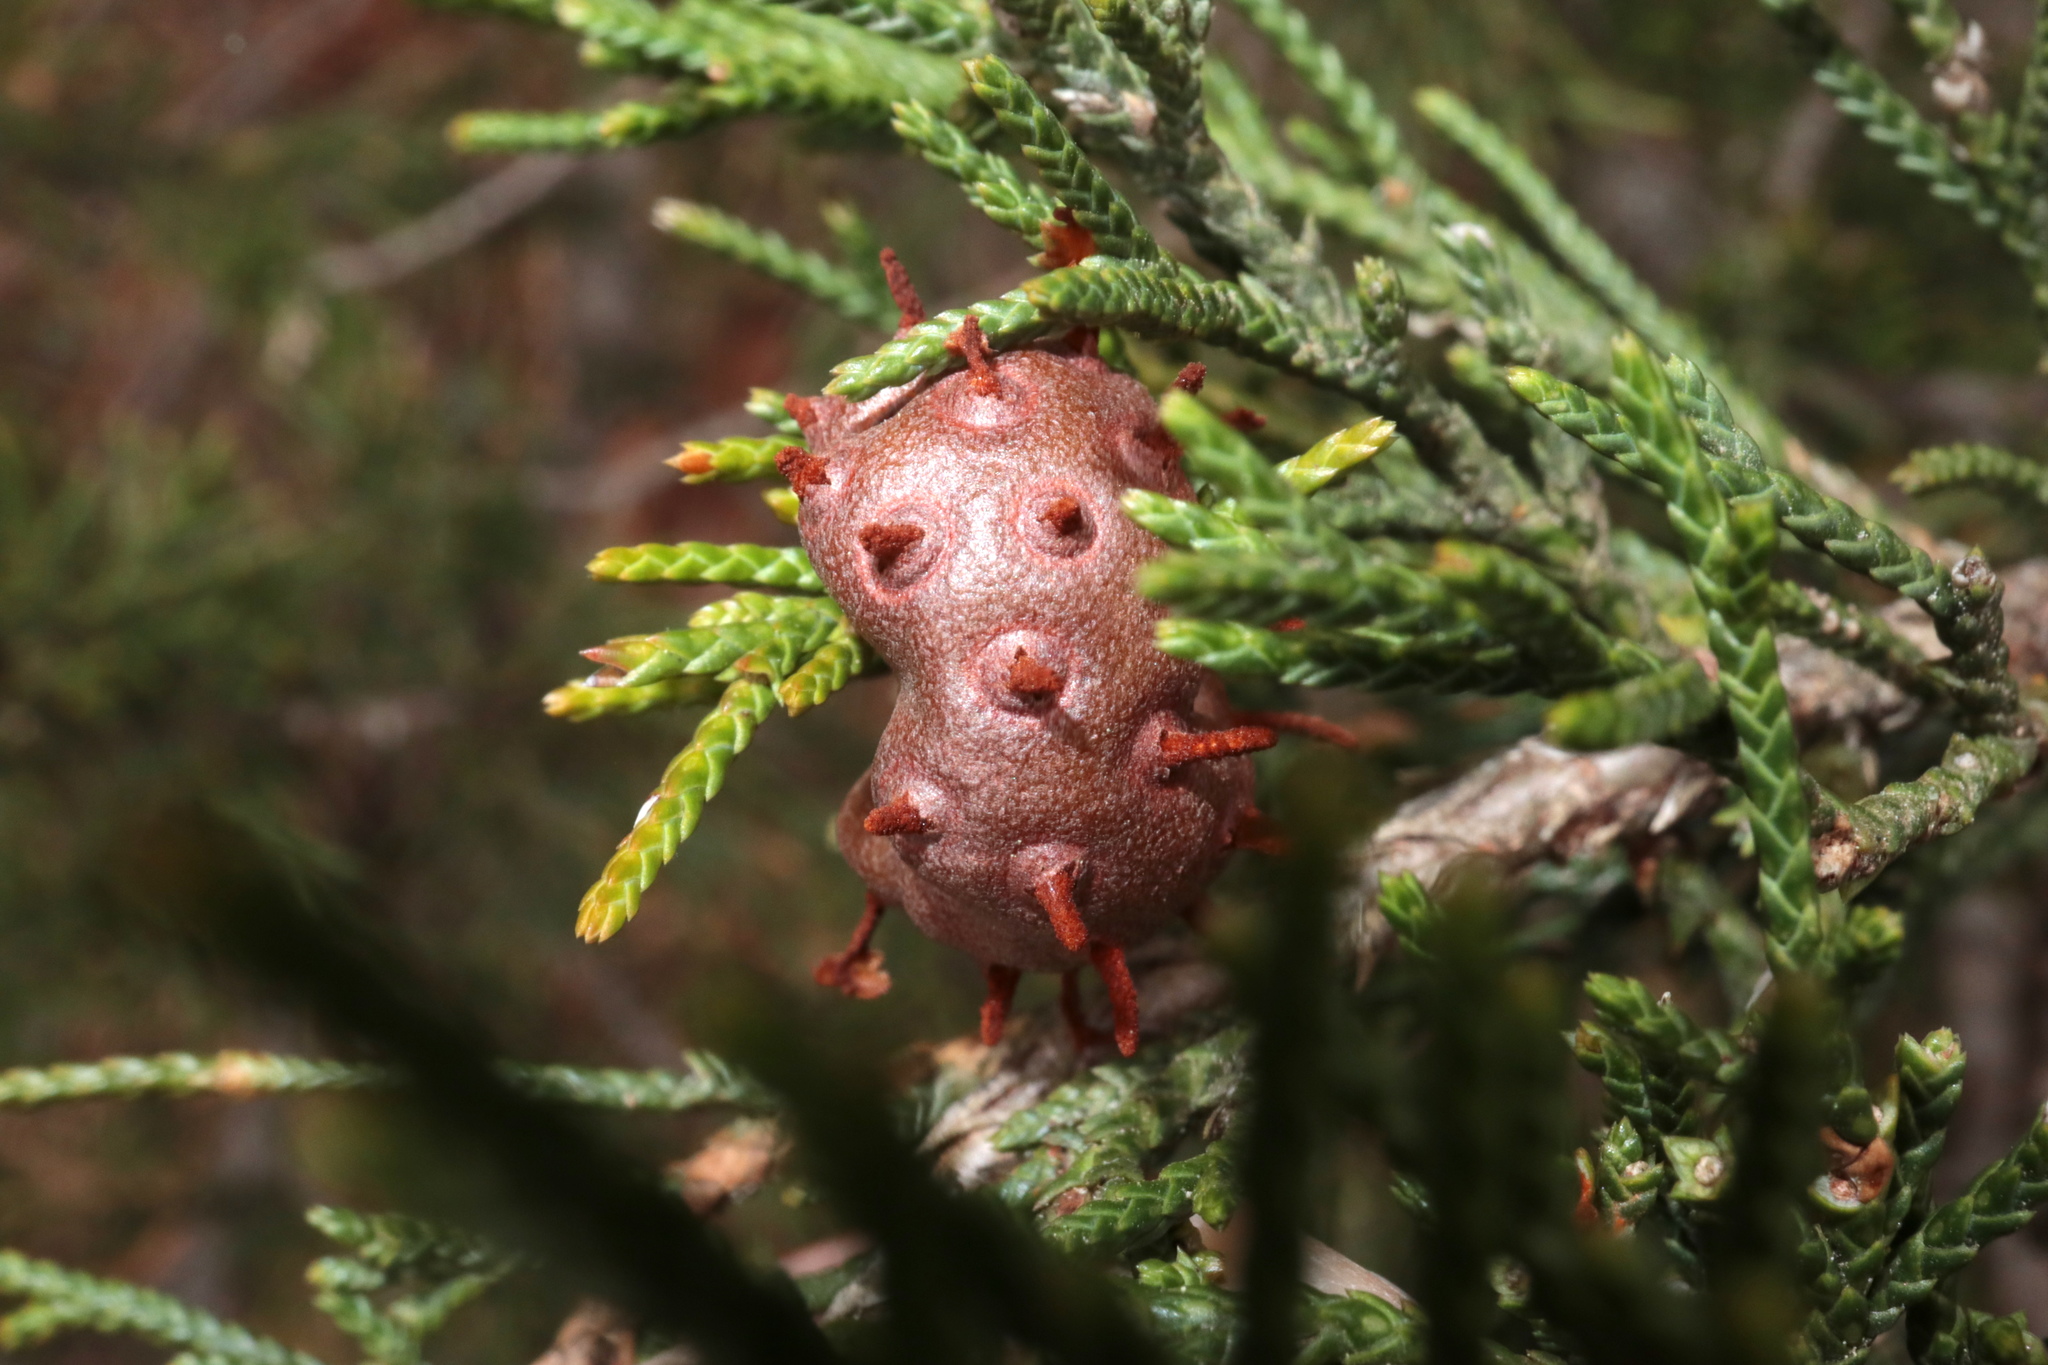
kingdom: Fungi
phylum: Basidiomycota
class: Pucciniomycetes
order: Pucciniales
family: Gymnosporangiaceae
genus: Gymnosporangium
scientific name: Gymnosporangium juniperi-virginianae
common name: Juniper-apple rust
